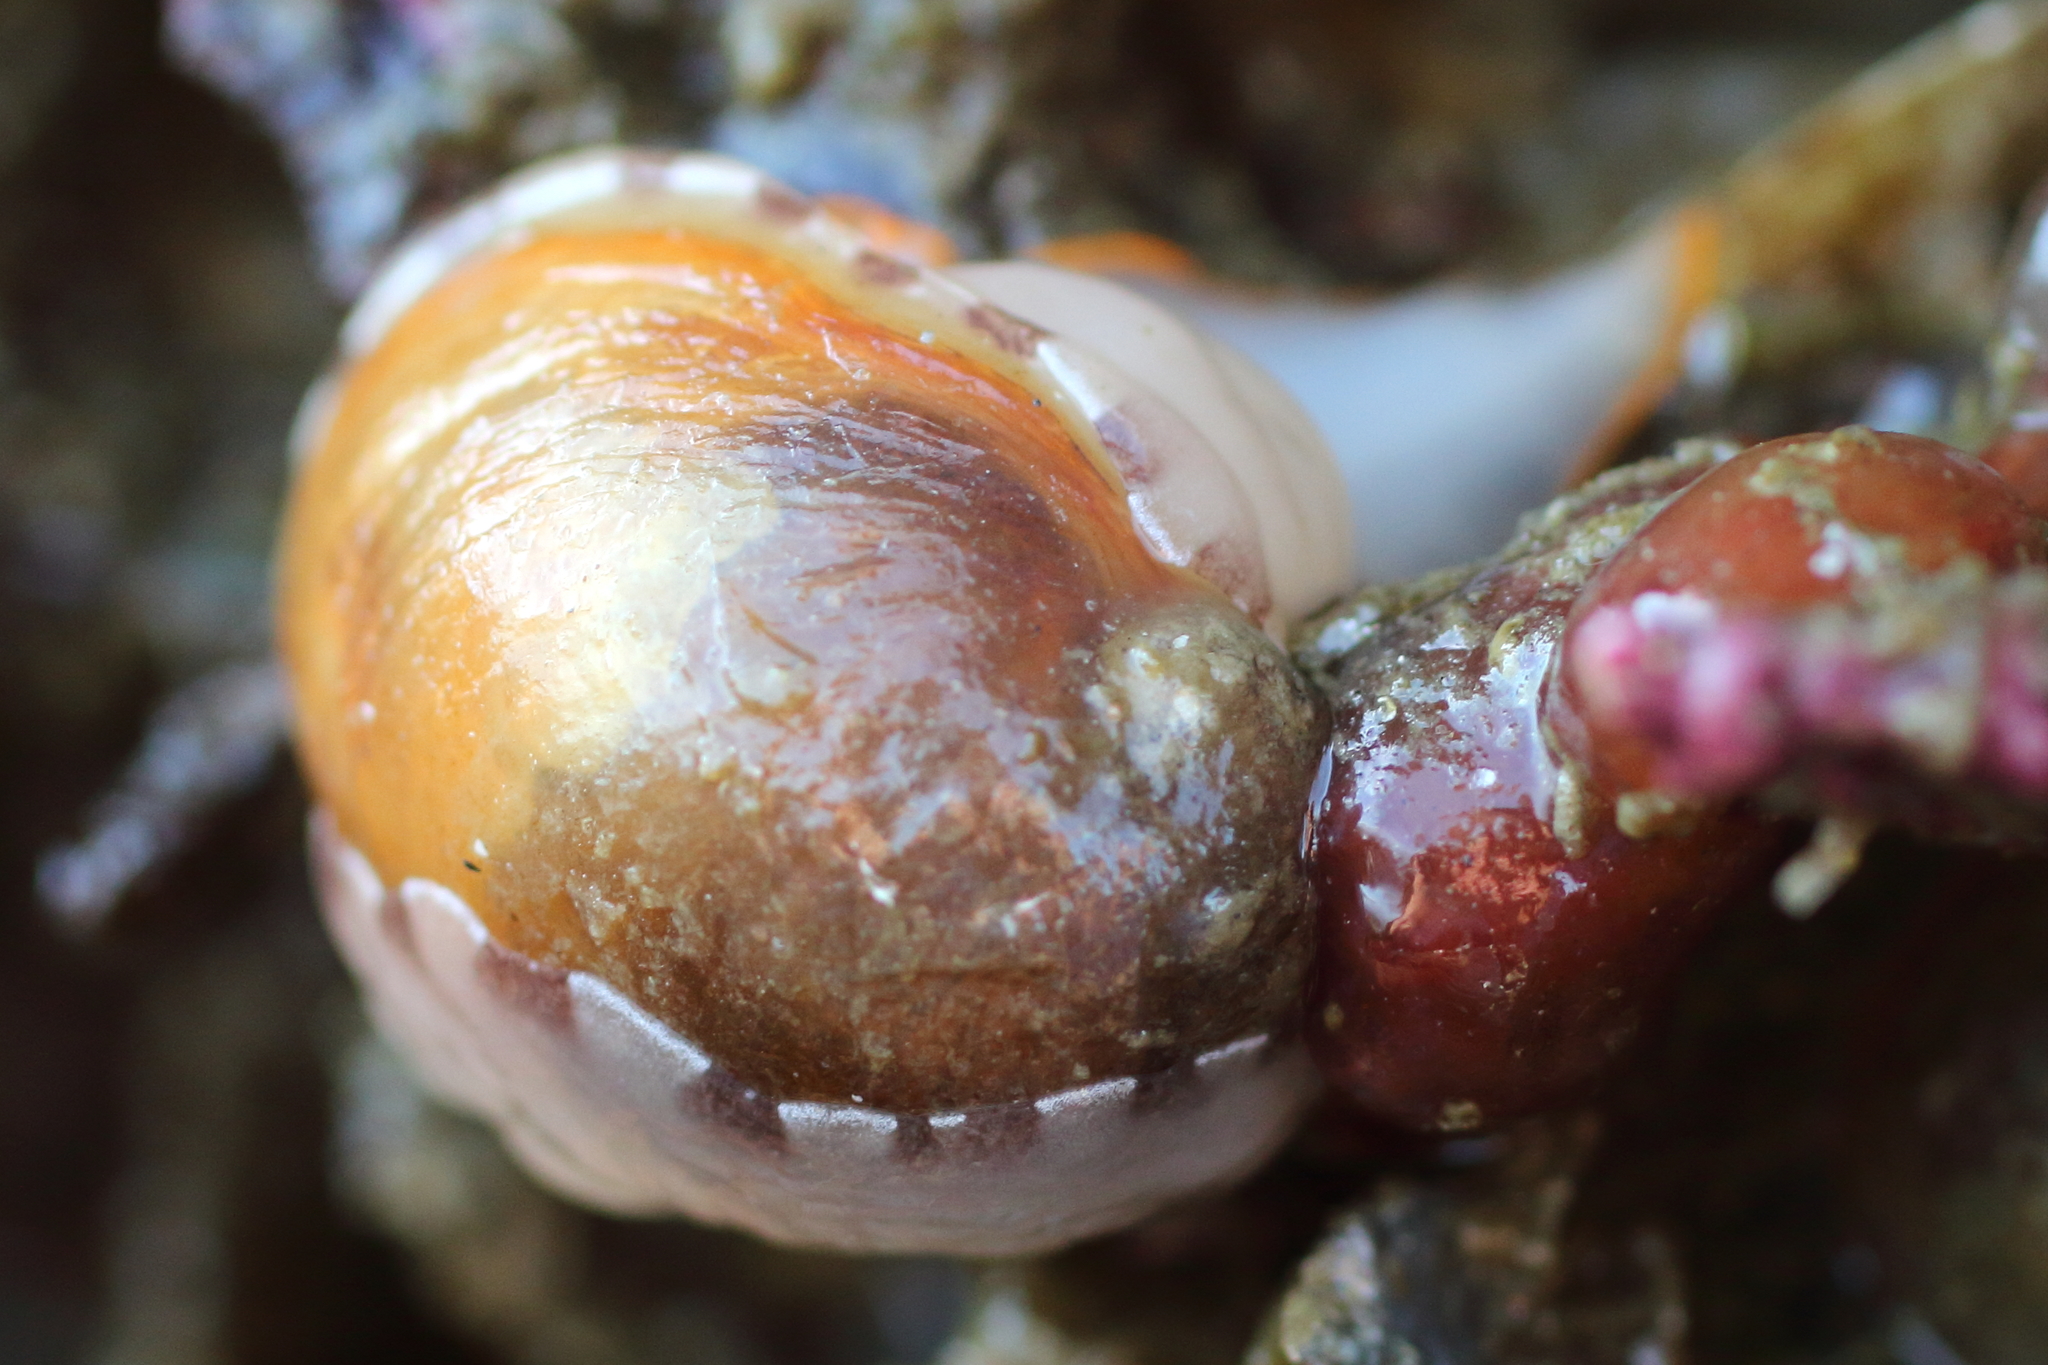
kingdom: Animalia
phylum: Mollusca
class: Gastropoda
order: Littorinimorpha
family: Velutinidae
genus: Limneria
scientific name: Limneria prolongata
